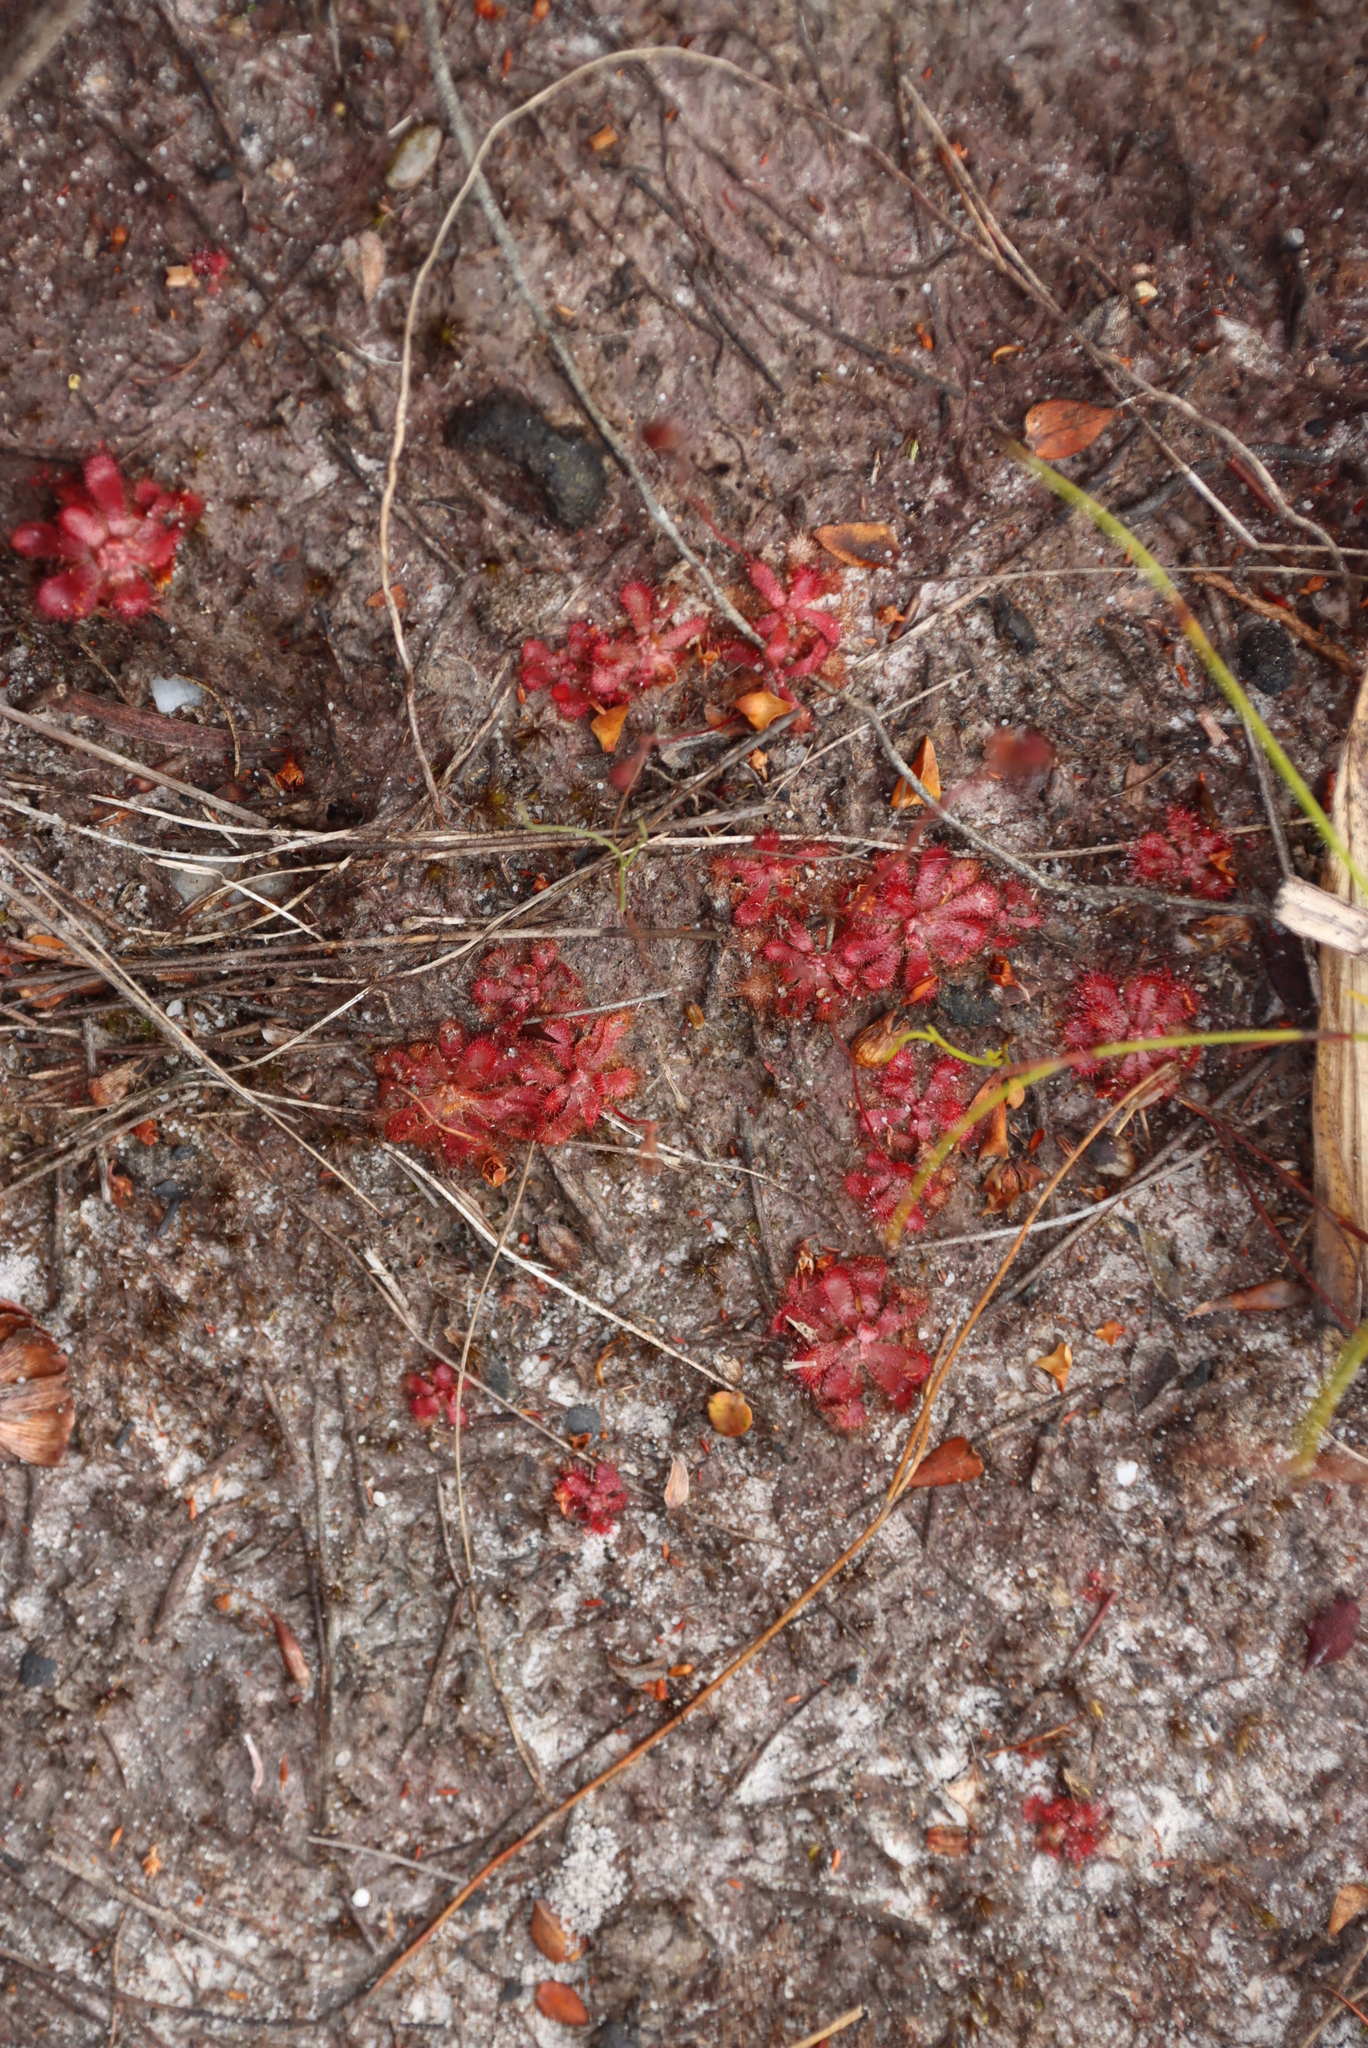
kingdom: Plantae
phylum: Tracheophyta
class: Magnoliopsida
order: Caryophyllales
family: Droseraceae
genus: Drosera
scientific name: Drosera aliciae
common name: Alice sundew
